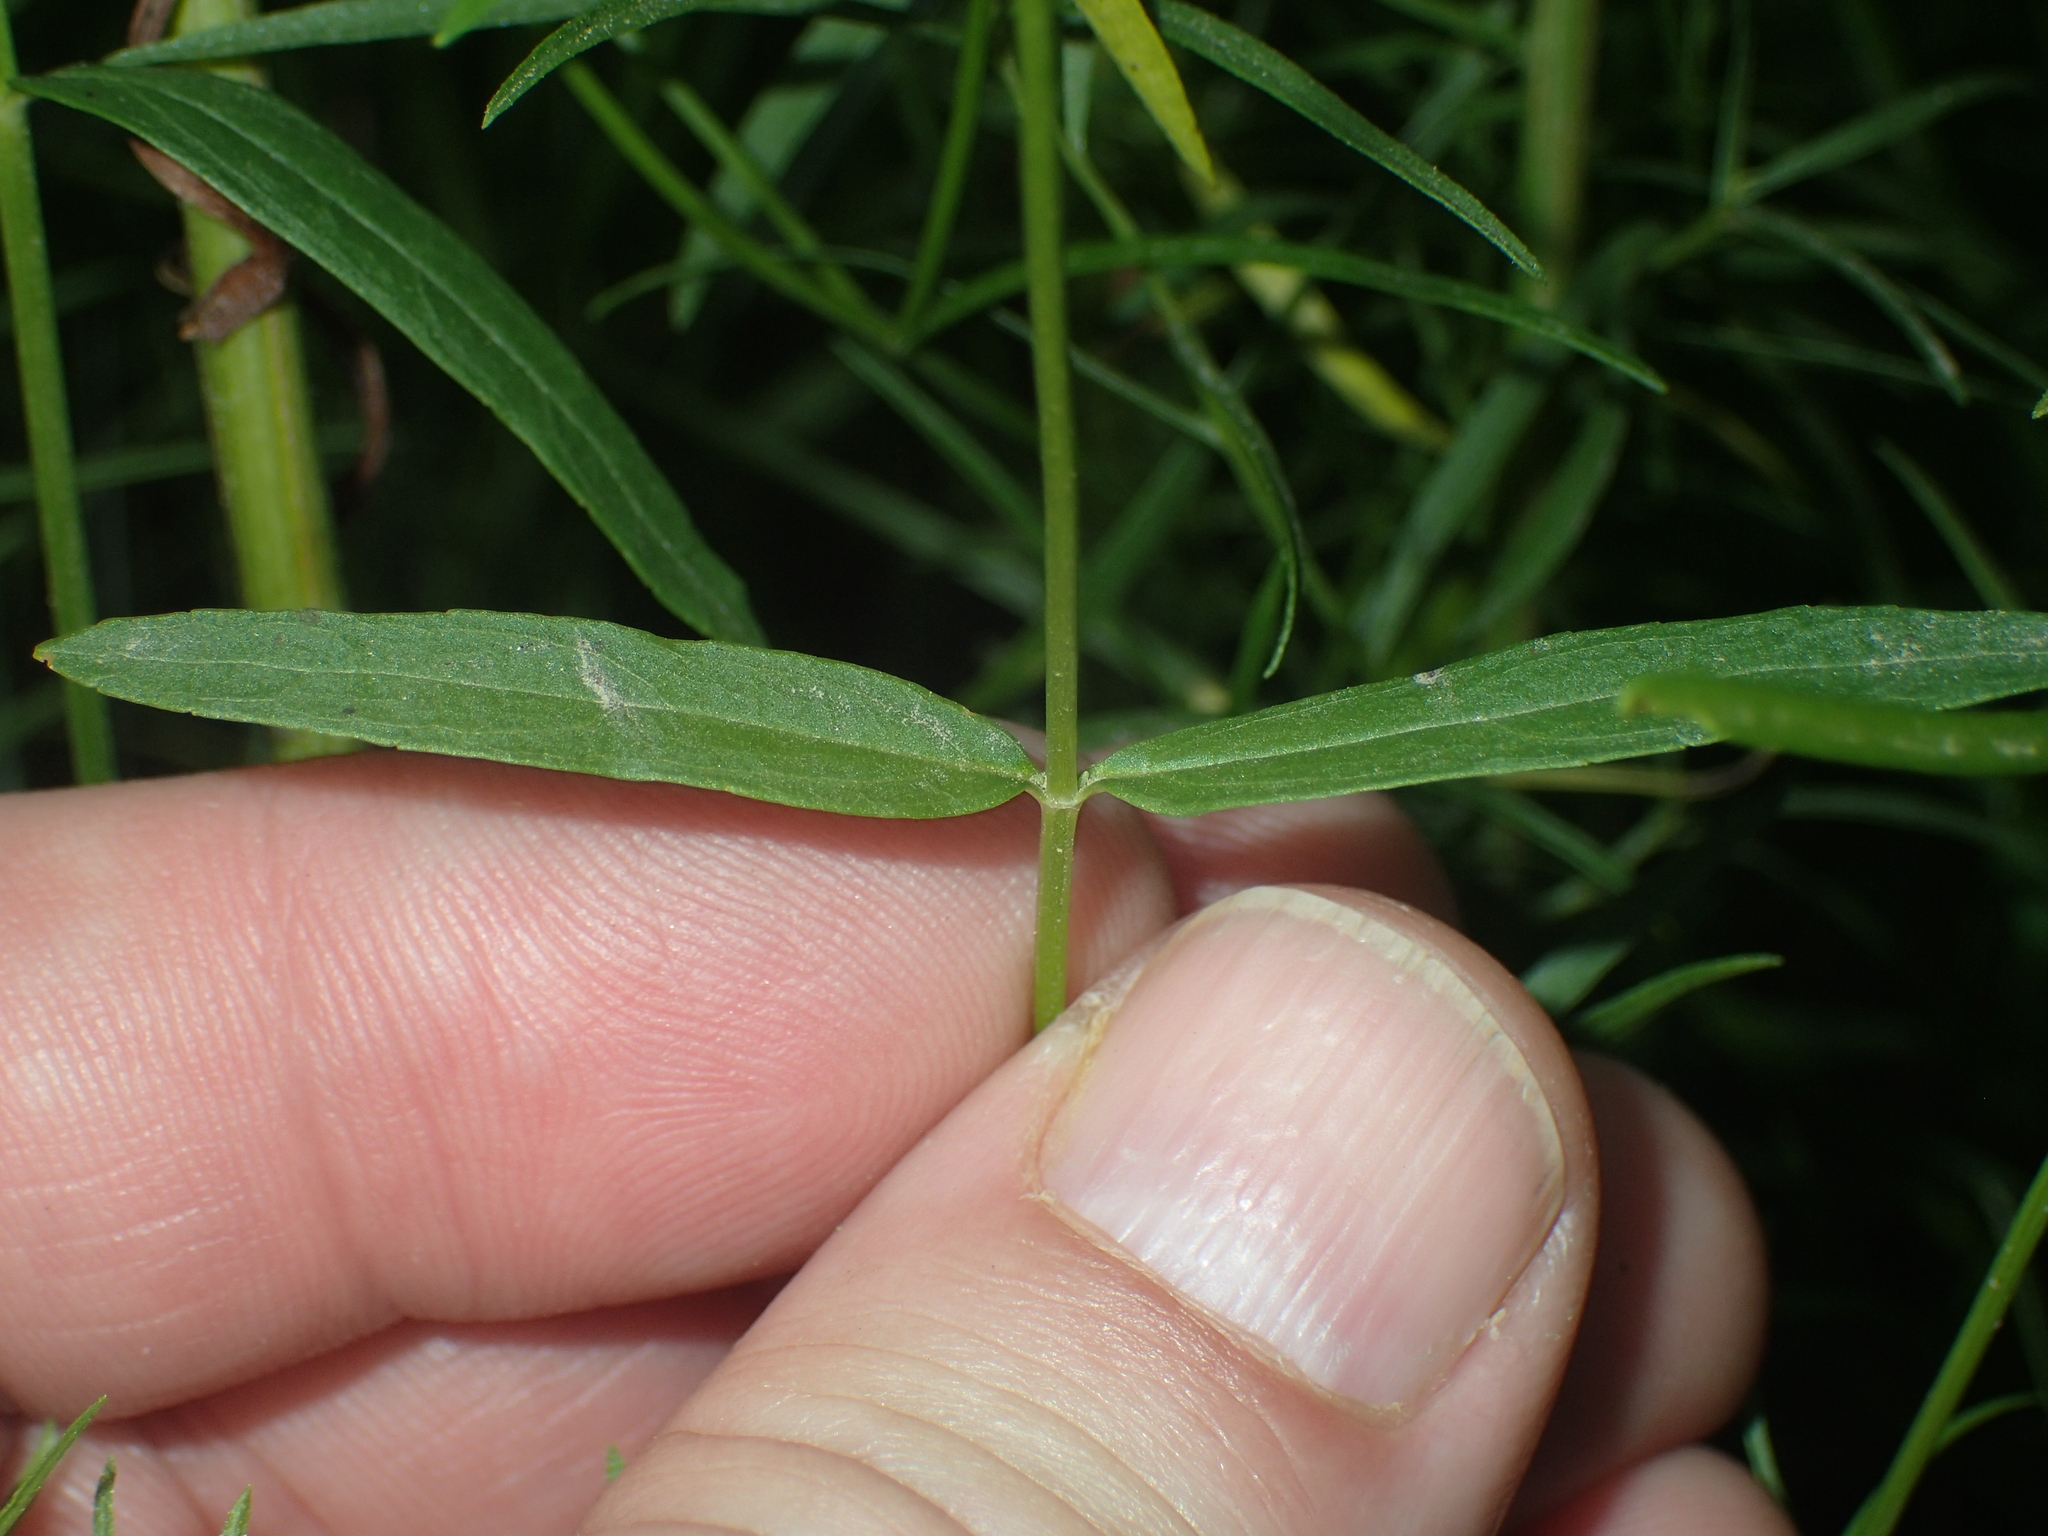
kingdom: Plantae
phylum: Tracheophyta
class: Magnoliopsida
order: Lamiales
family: Lamiaceae
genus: Stachys
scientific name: Stachys hyssopifolia
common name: Hyssopleaf hedgenettle
